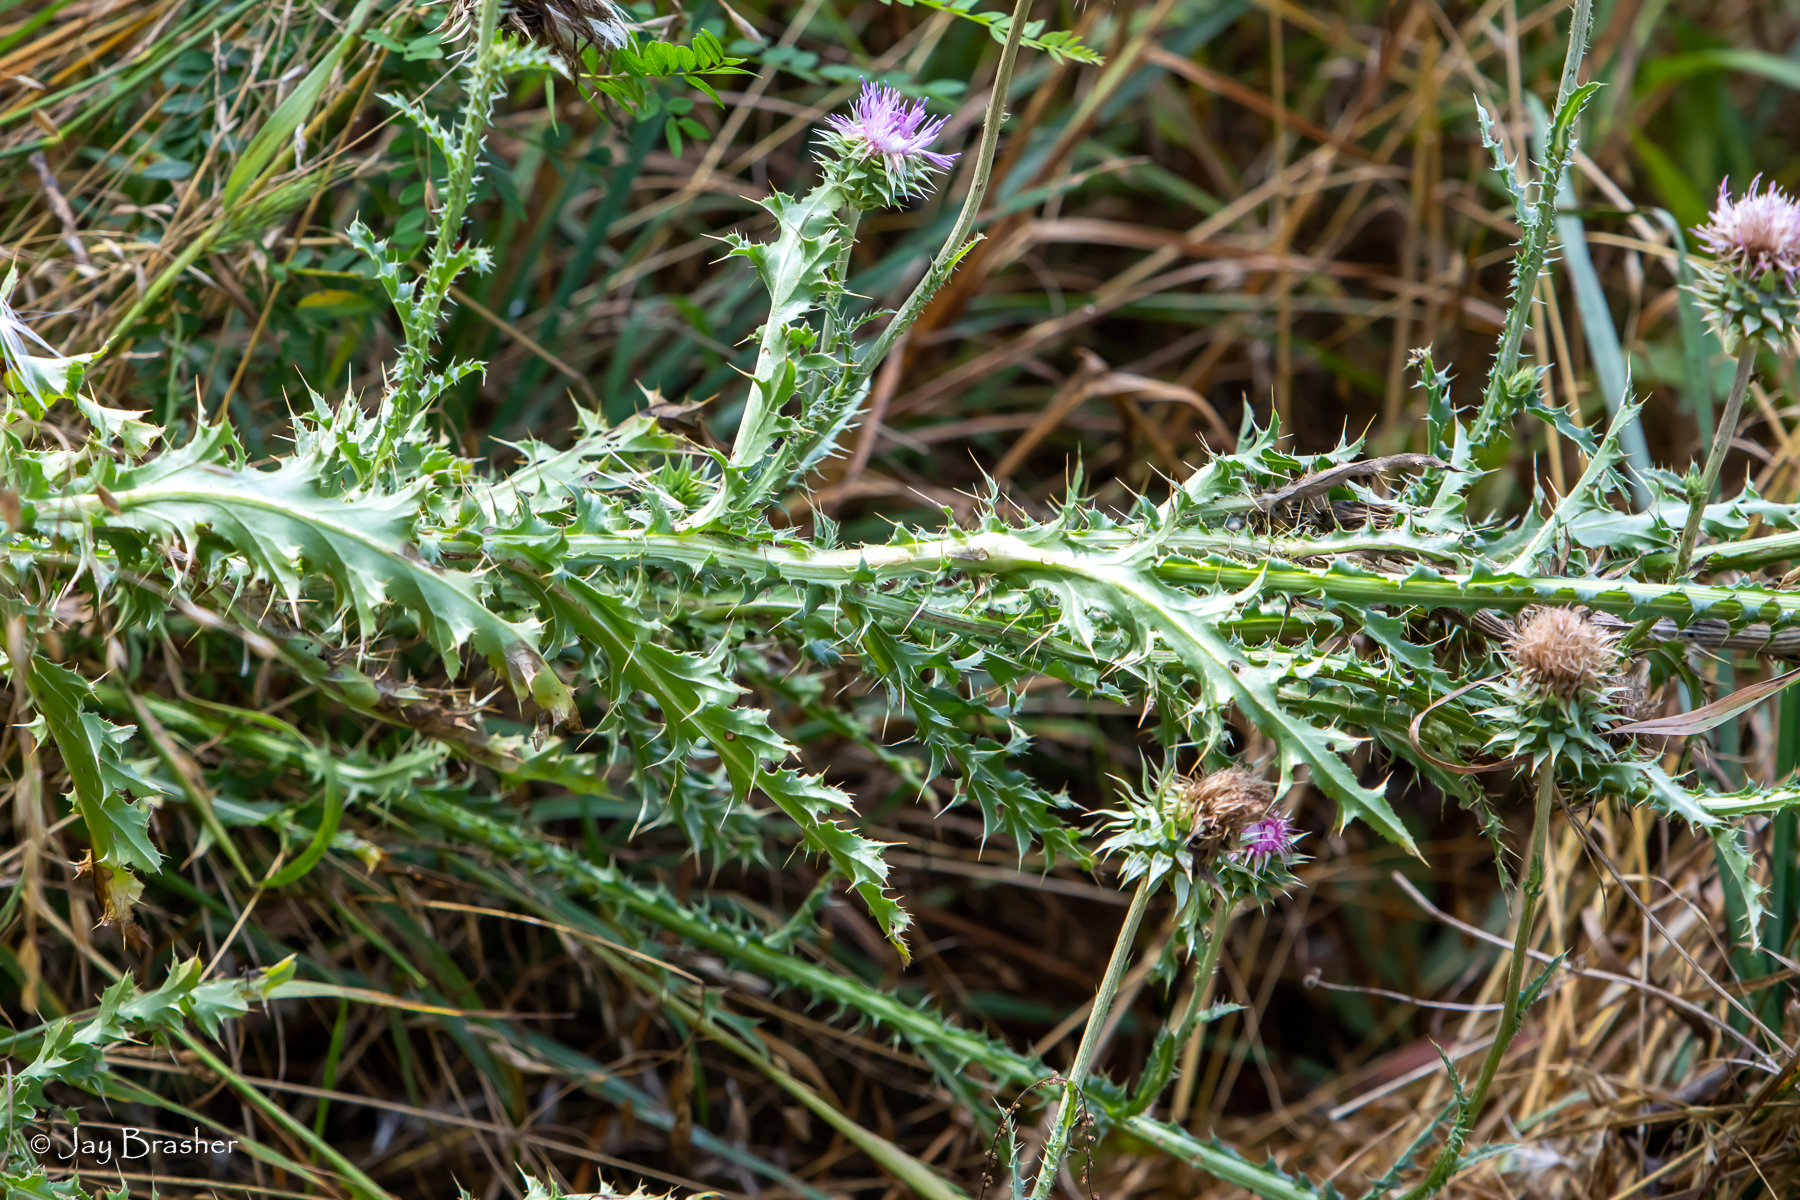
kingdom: Plantae
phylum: Tracheophyta
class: Magnoliopsida
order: Asterales
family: Asteraceae
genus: Carduus
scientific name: Carduus nutans
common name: Musk thistle
